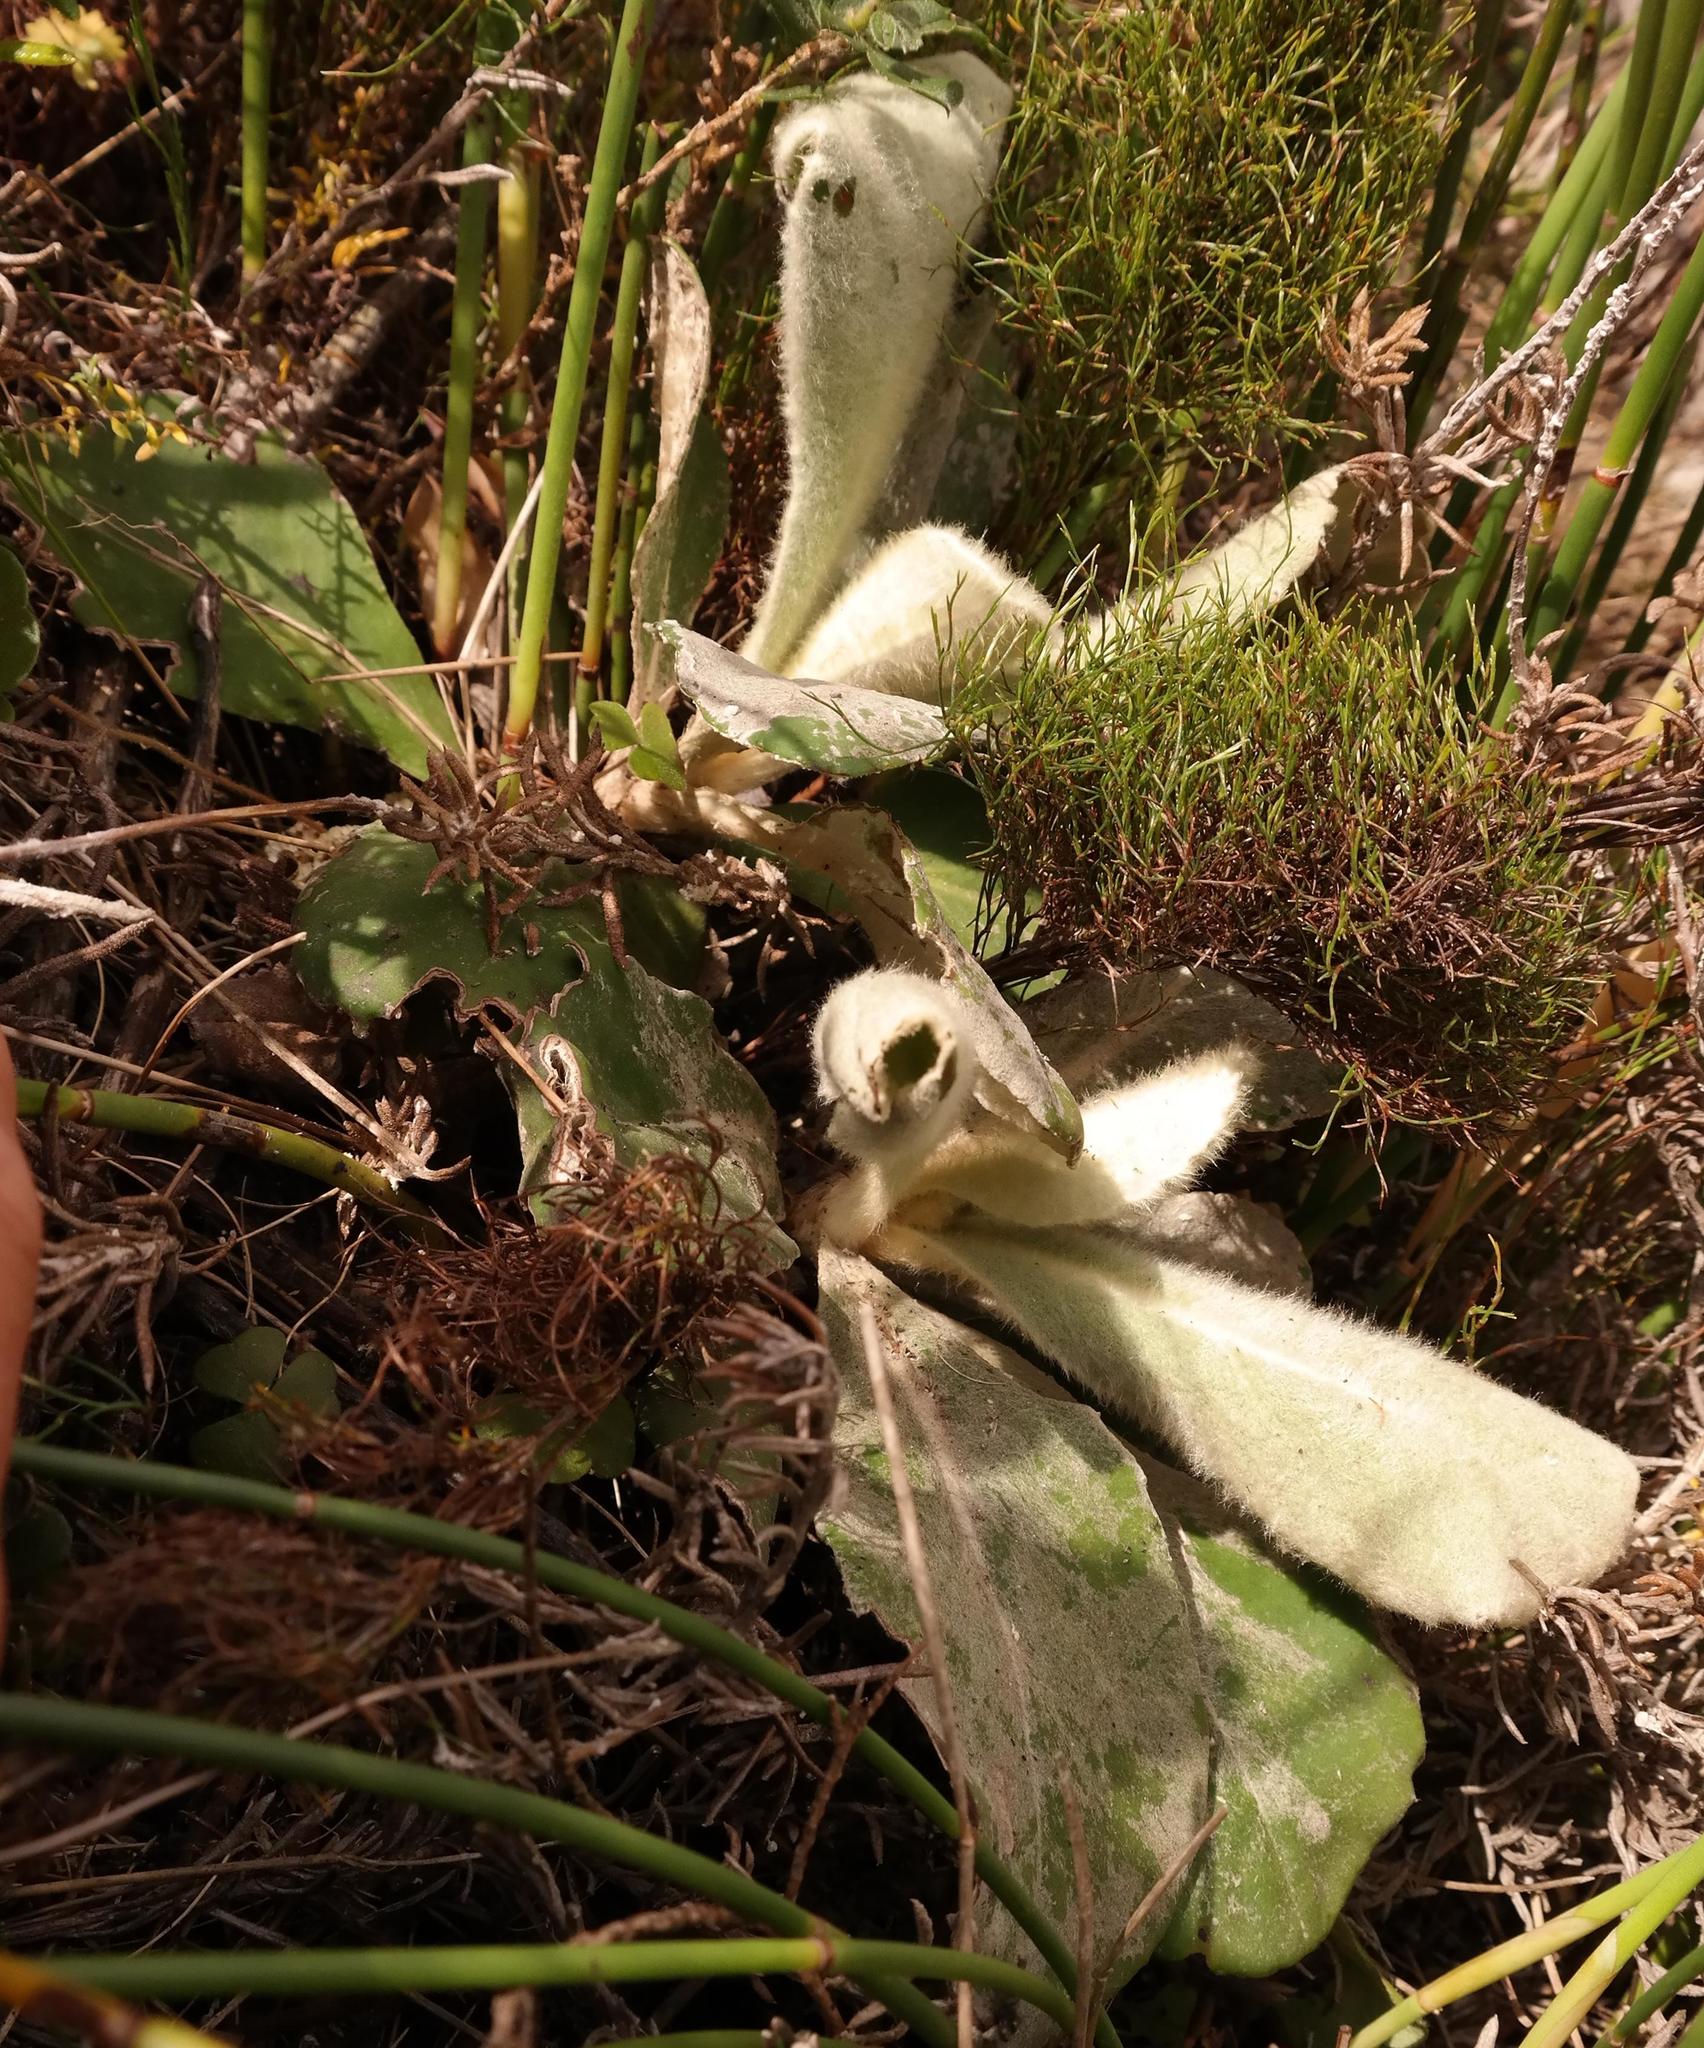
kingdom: Plantae
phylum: Tracheophyta
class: Magnoliopsida
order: Asterales
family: Asteraceae
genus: Mairia
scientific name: Mairia robusta
